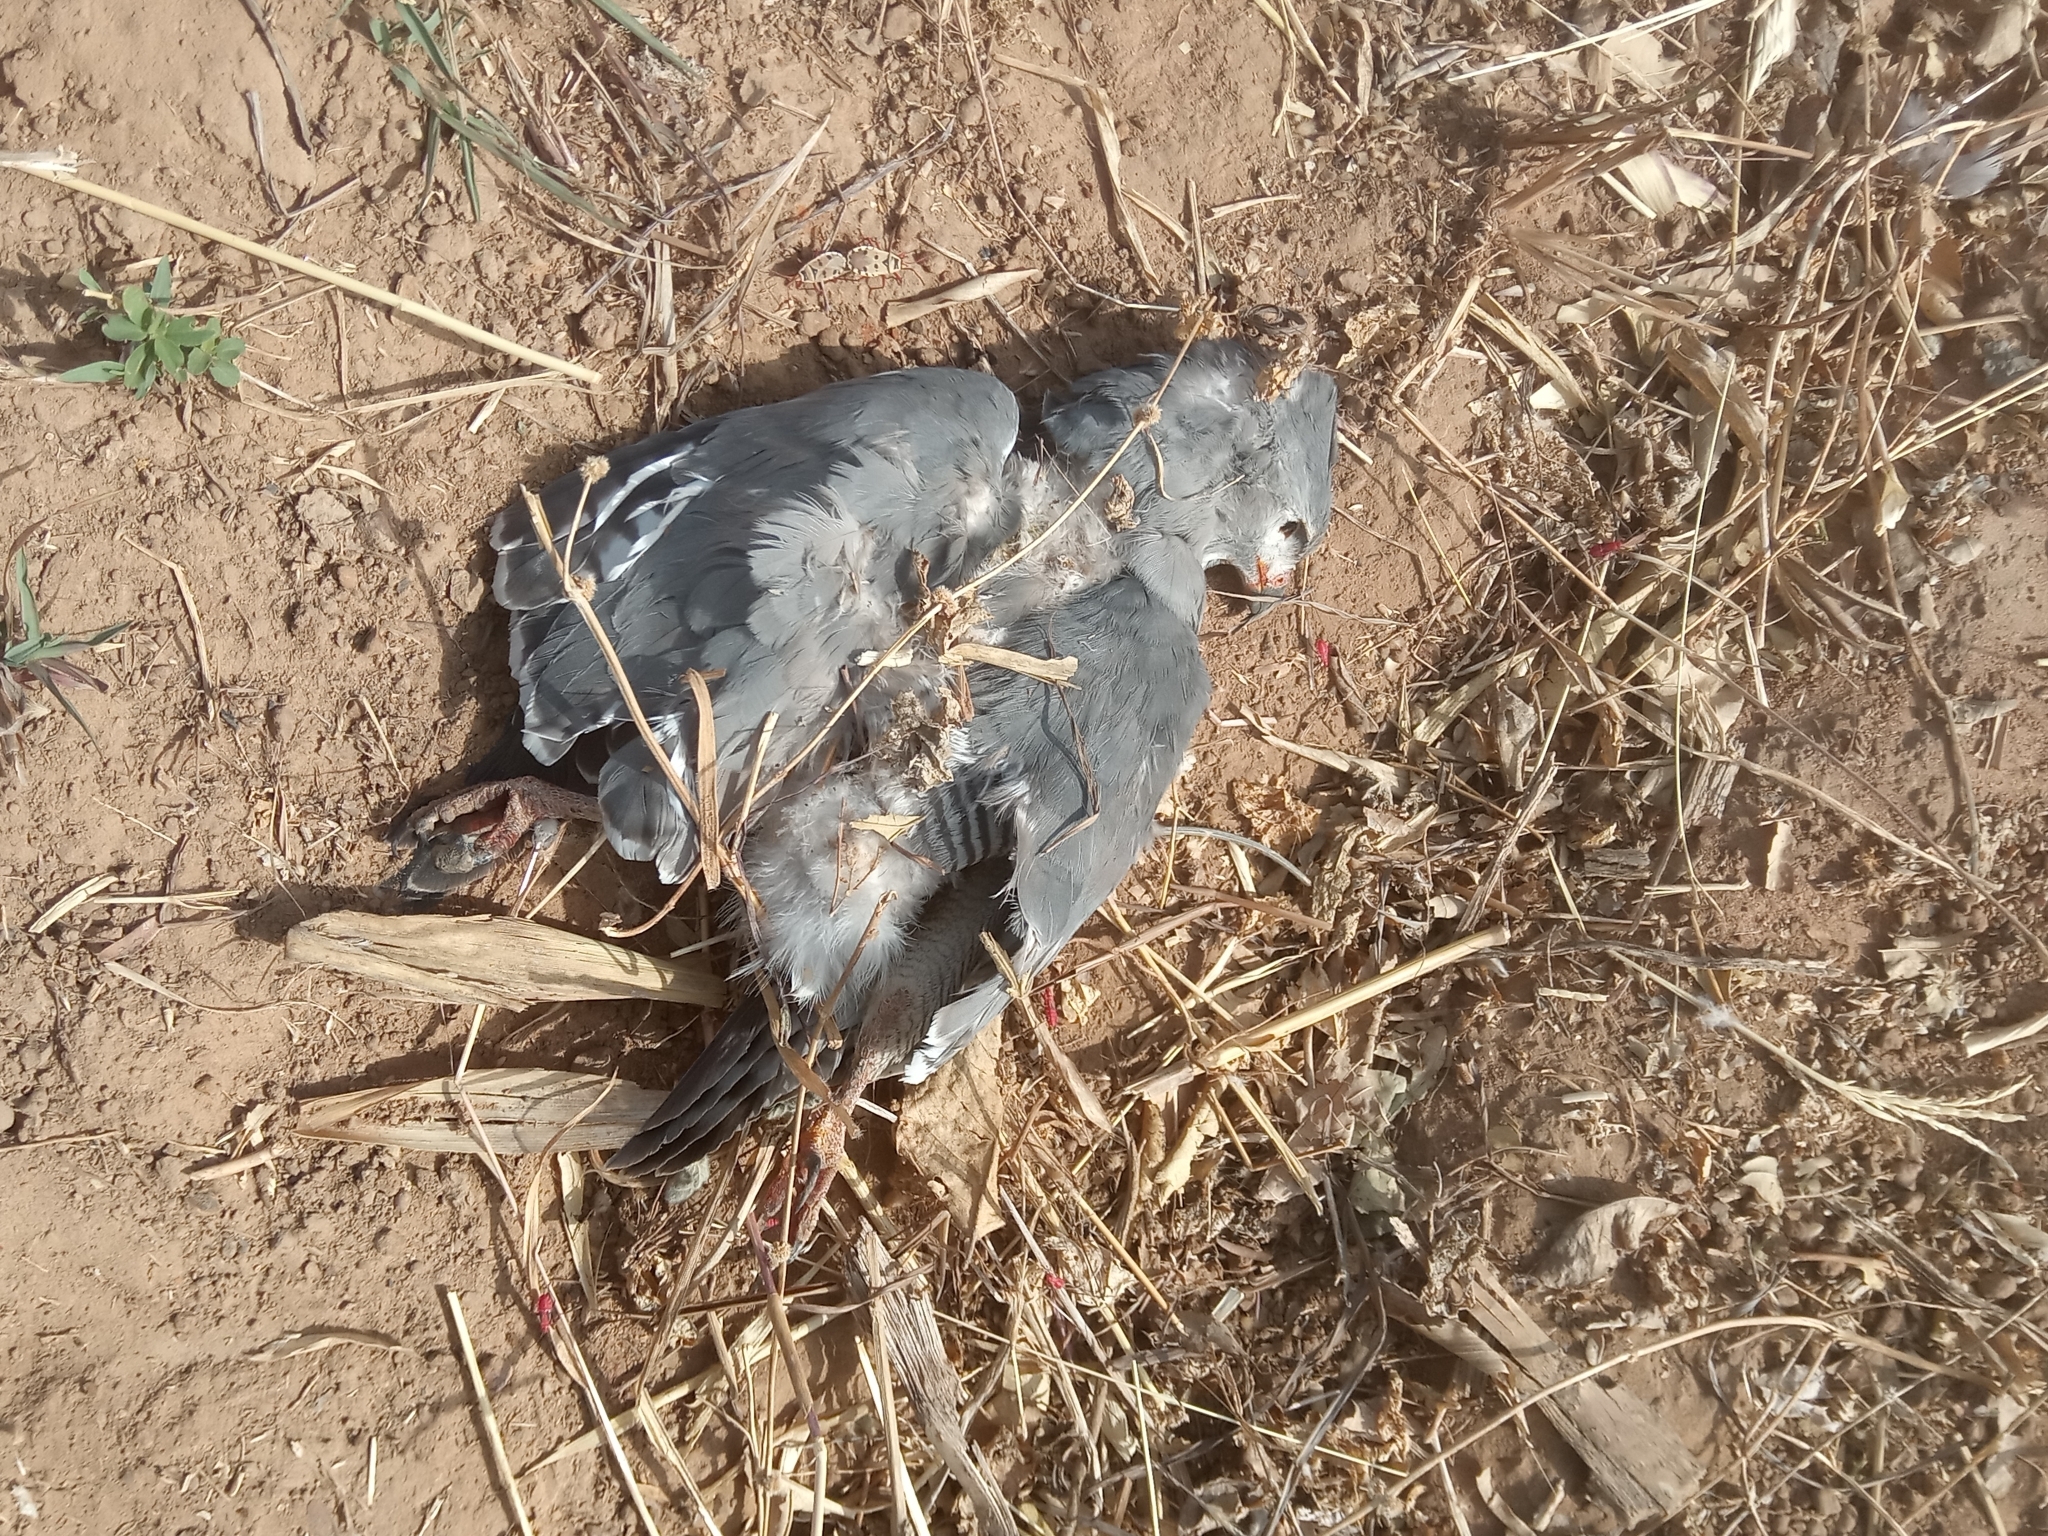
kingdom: Animalia
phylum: Chordata
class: Aves
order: Accipitriformes
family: Accipitridae
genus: Kaupifalco
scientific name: Kaupifalco monogrammicus
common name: Lizard buzzard
